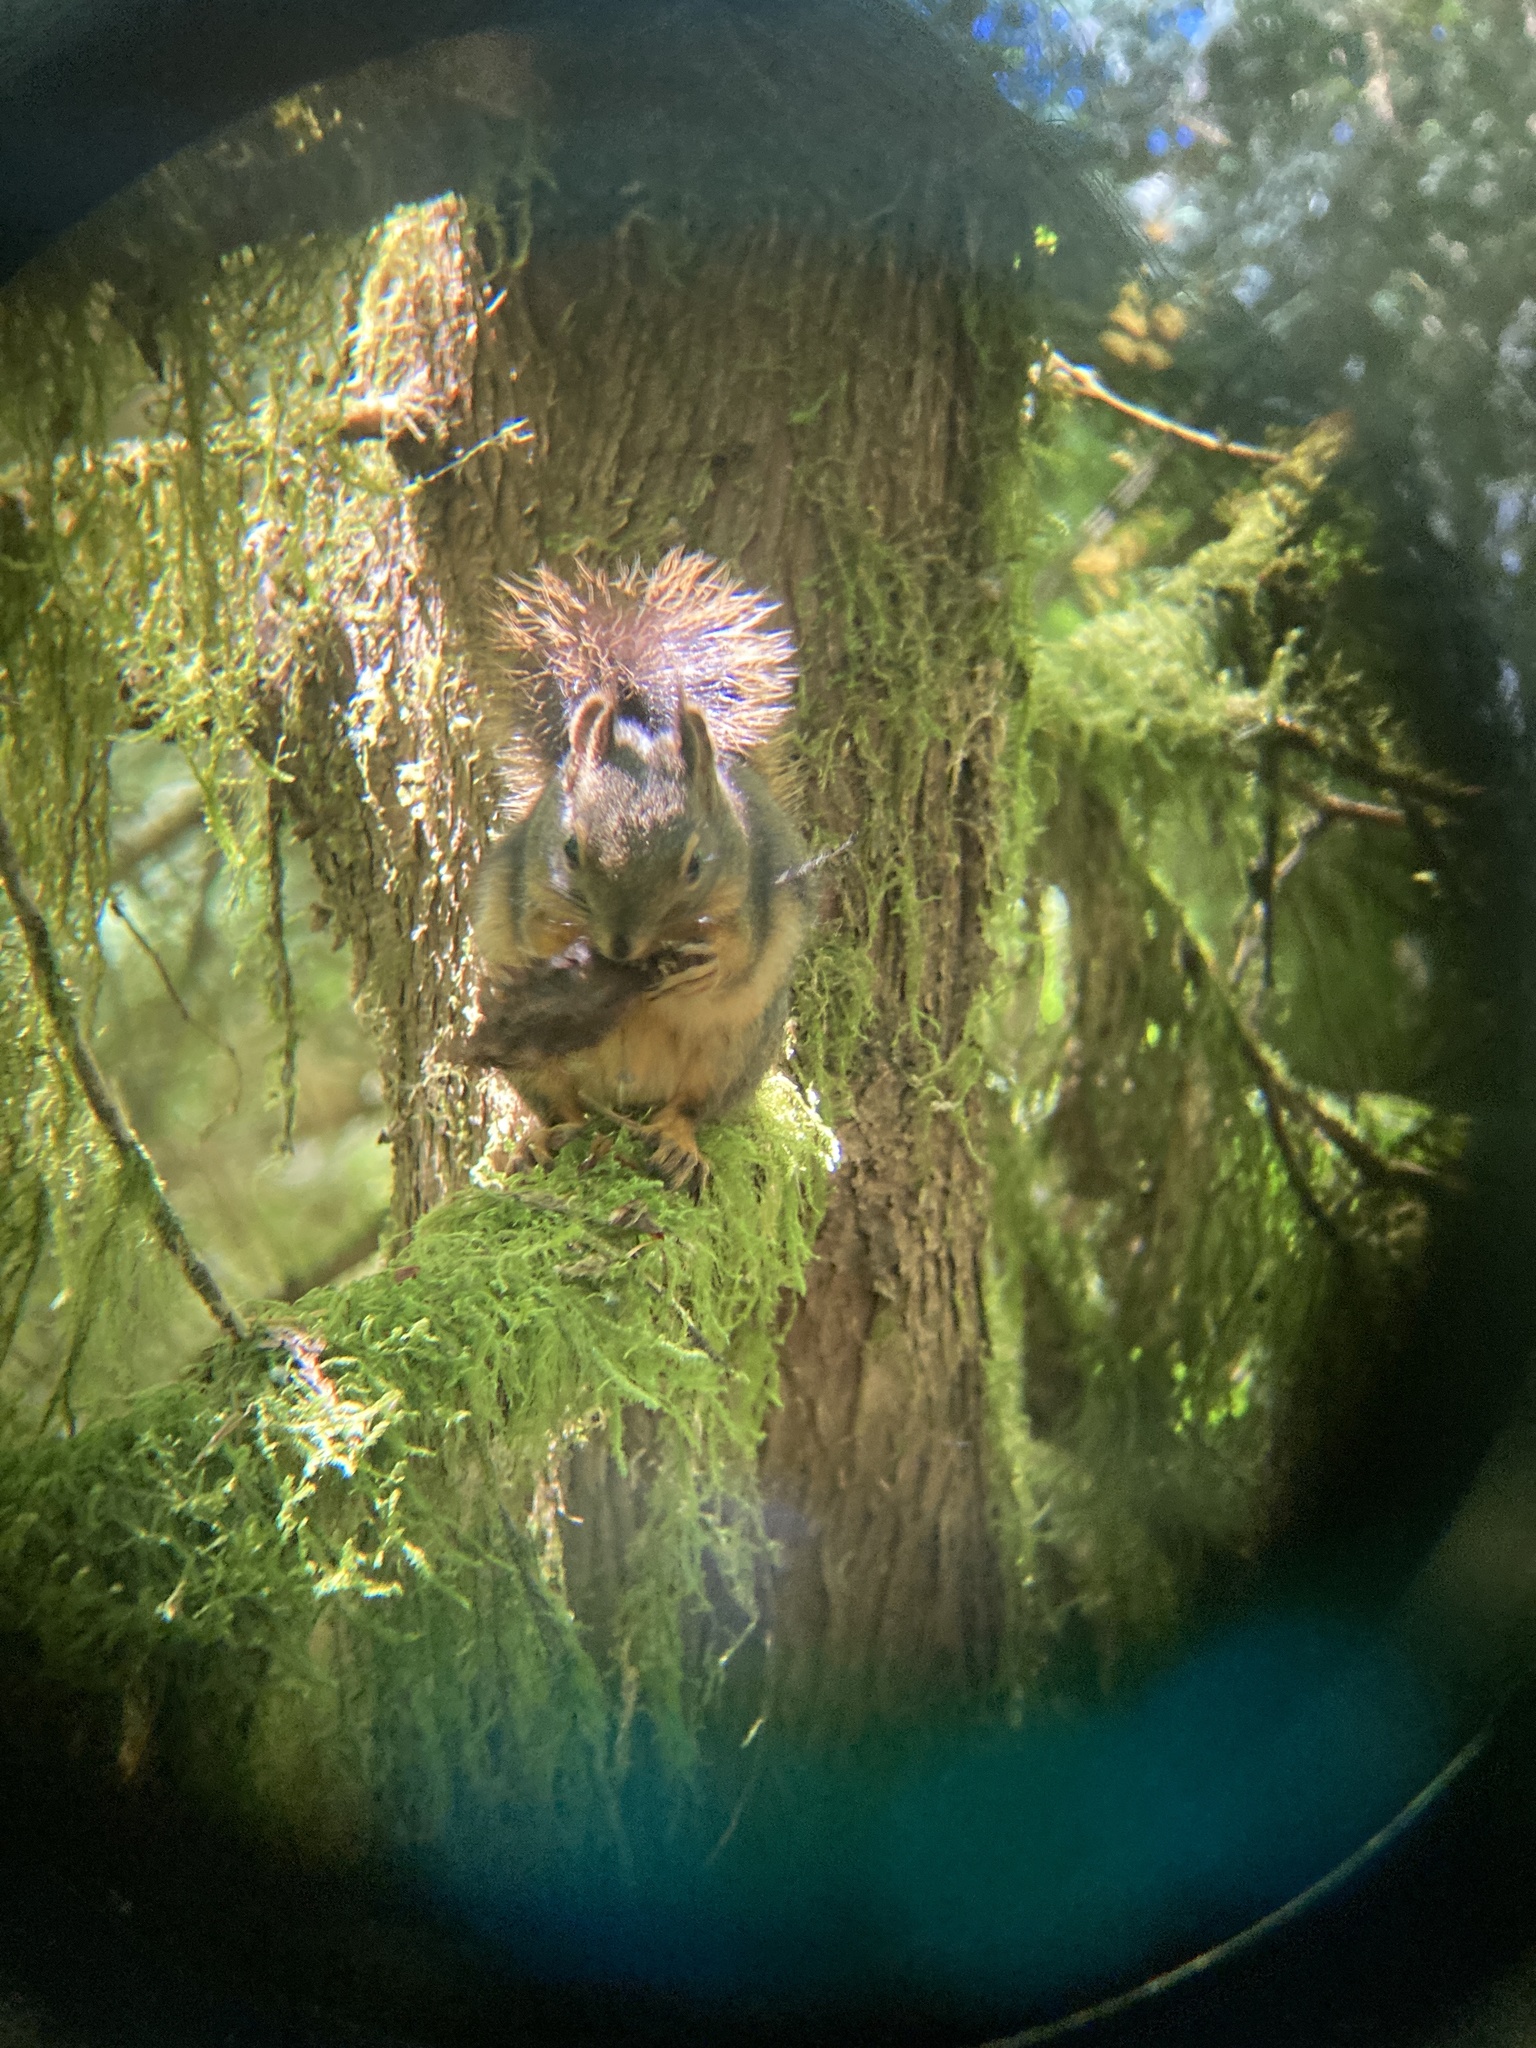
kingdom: Animalia
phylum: Chordata
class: Mammalia
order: Rodentia
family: Sciuridae
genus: Tamiasciurus
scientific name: Tamiasciurus douglasii
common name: Douglas's squirrel
